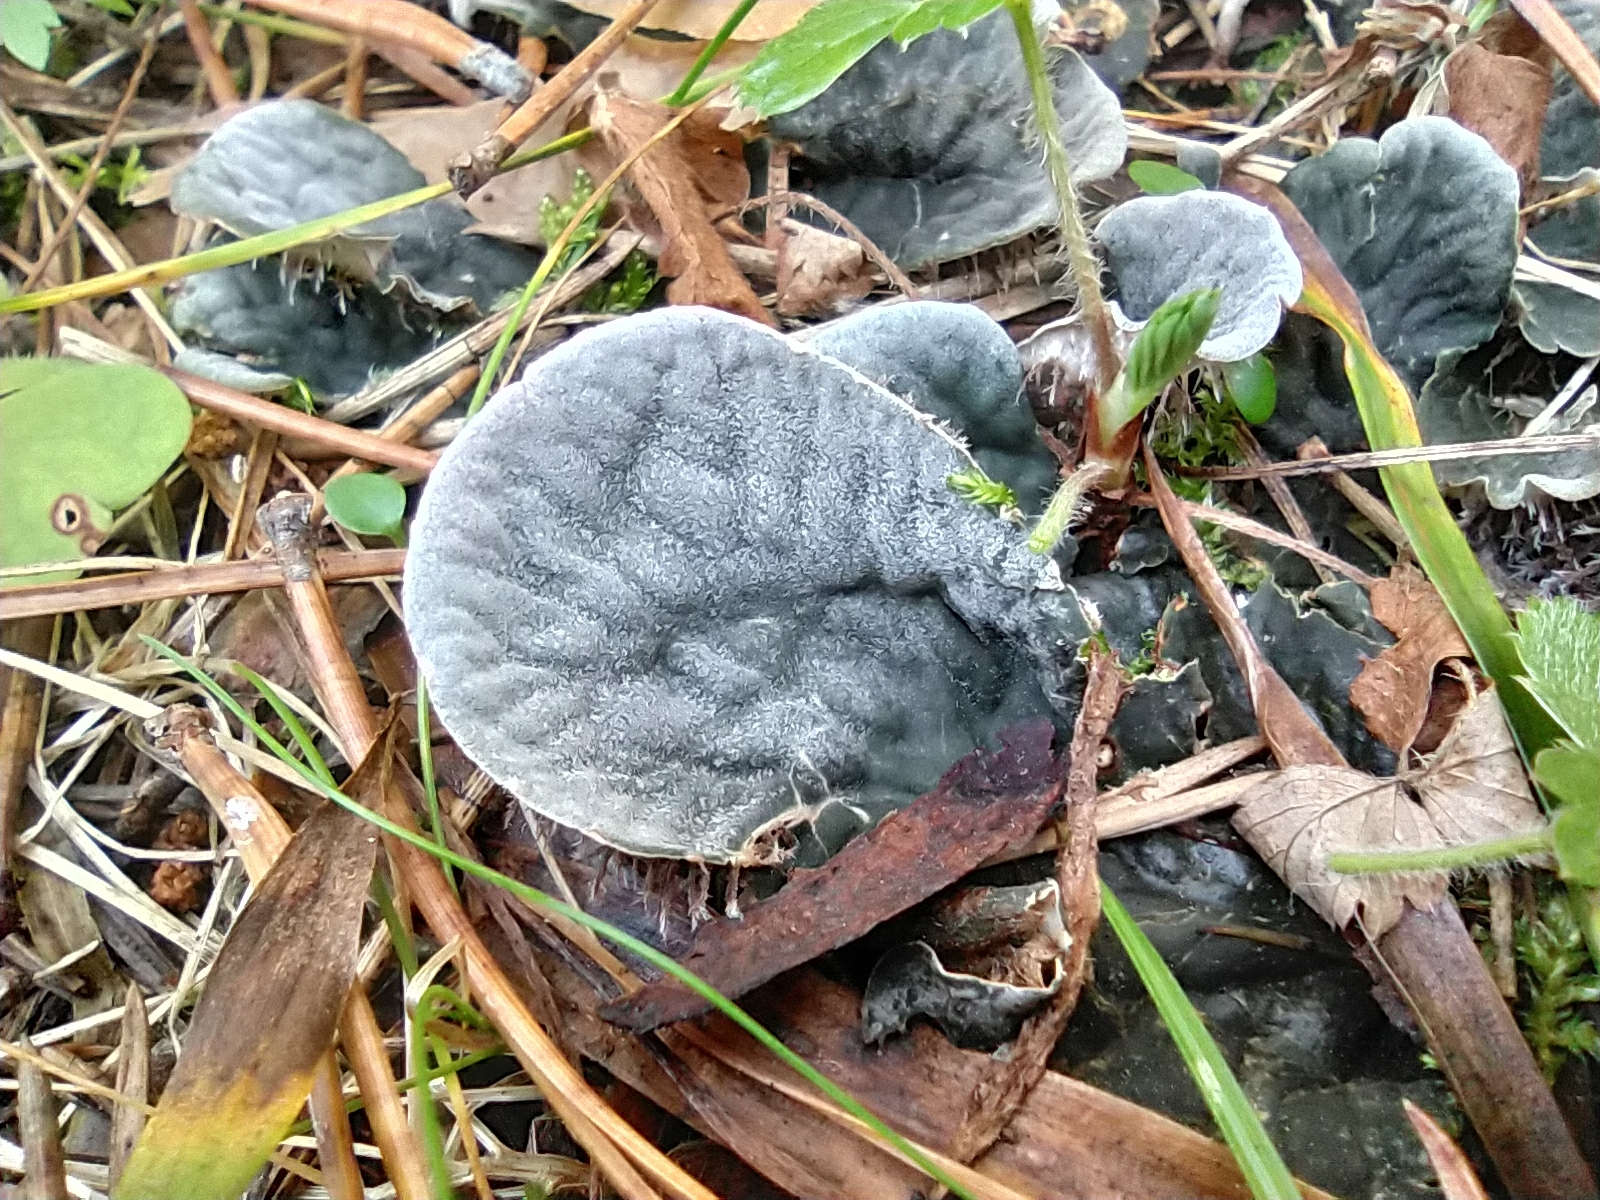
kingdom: Fungi
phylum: Ascomycota
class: Lecanoromycetes
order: Peltigerales
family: Peltigeraceae
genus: Peltigera
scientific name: Peltigera praetextata
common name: Scaly dog-lichen
